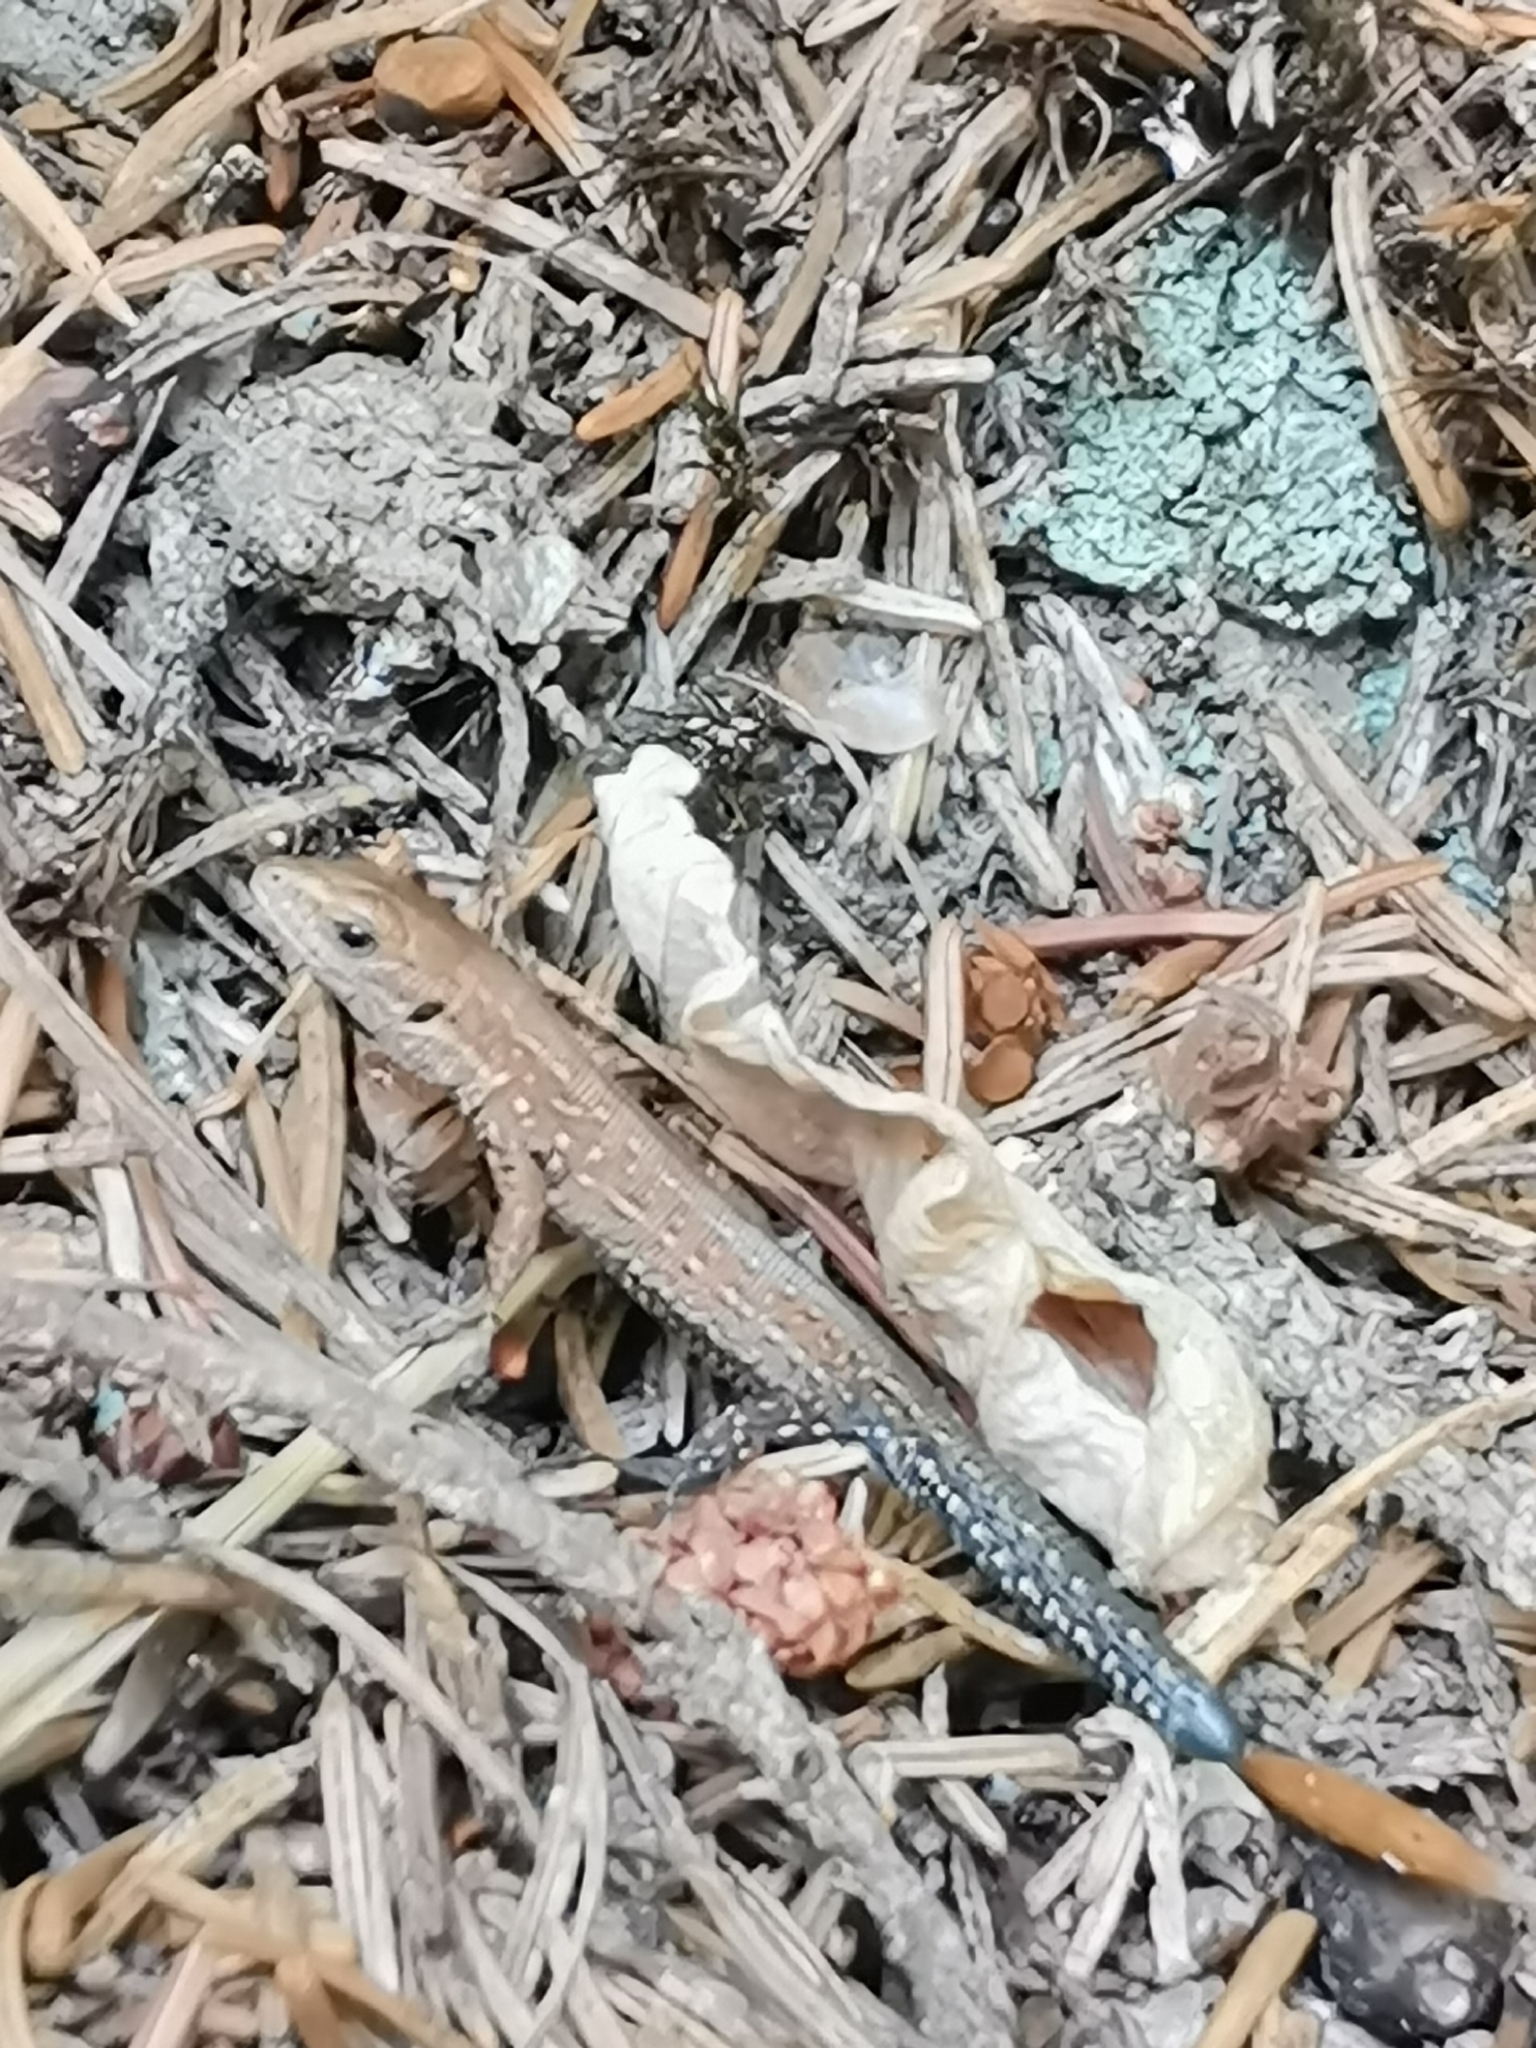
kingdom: Animalia
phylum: Chordata
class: Squamata
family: Lacertidae
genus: Zootoca
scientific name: Zootoca vivipara
